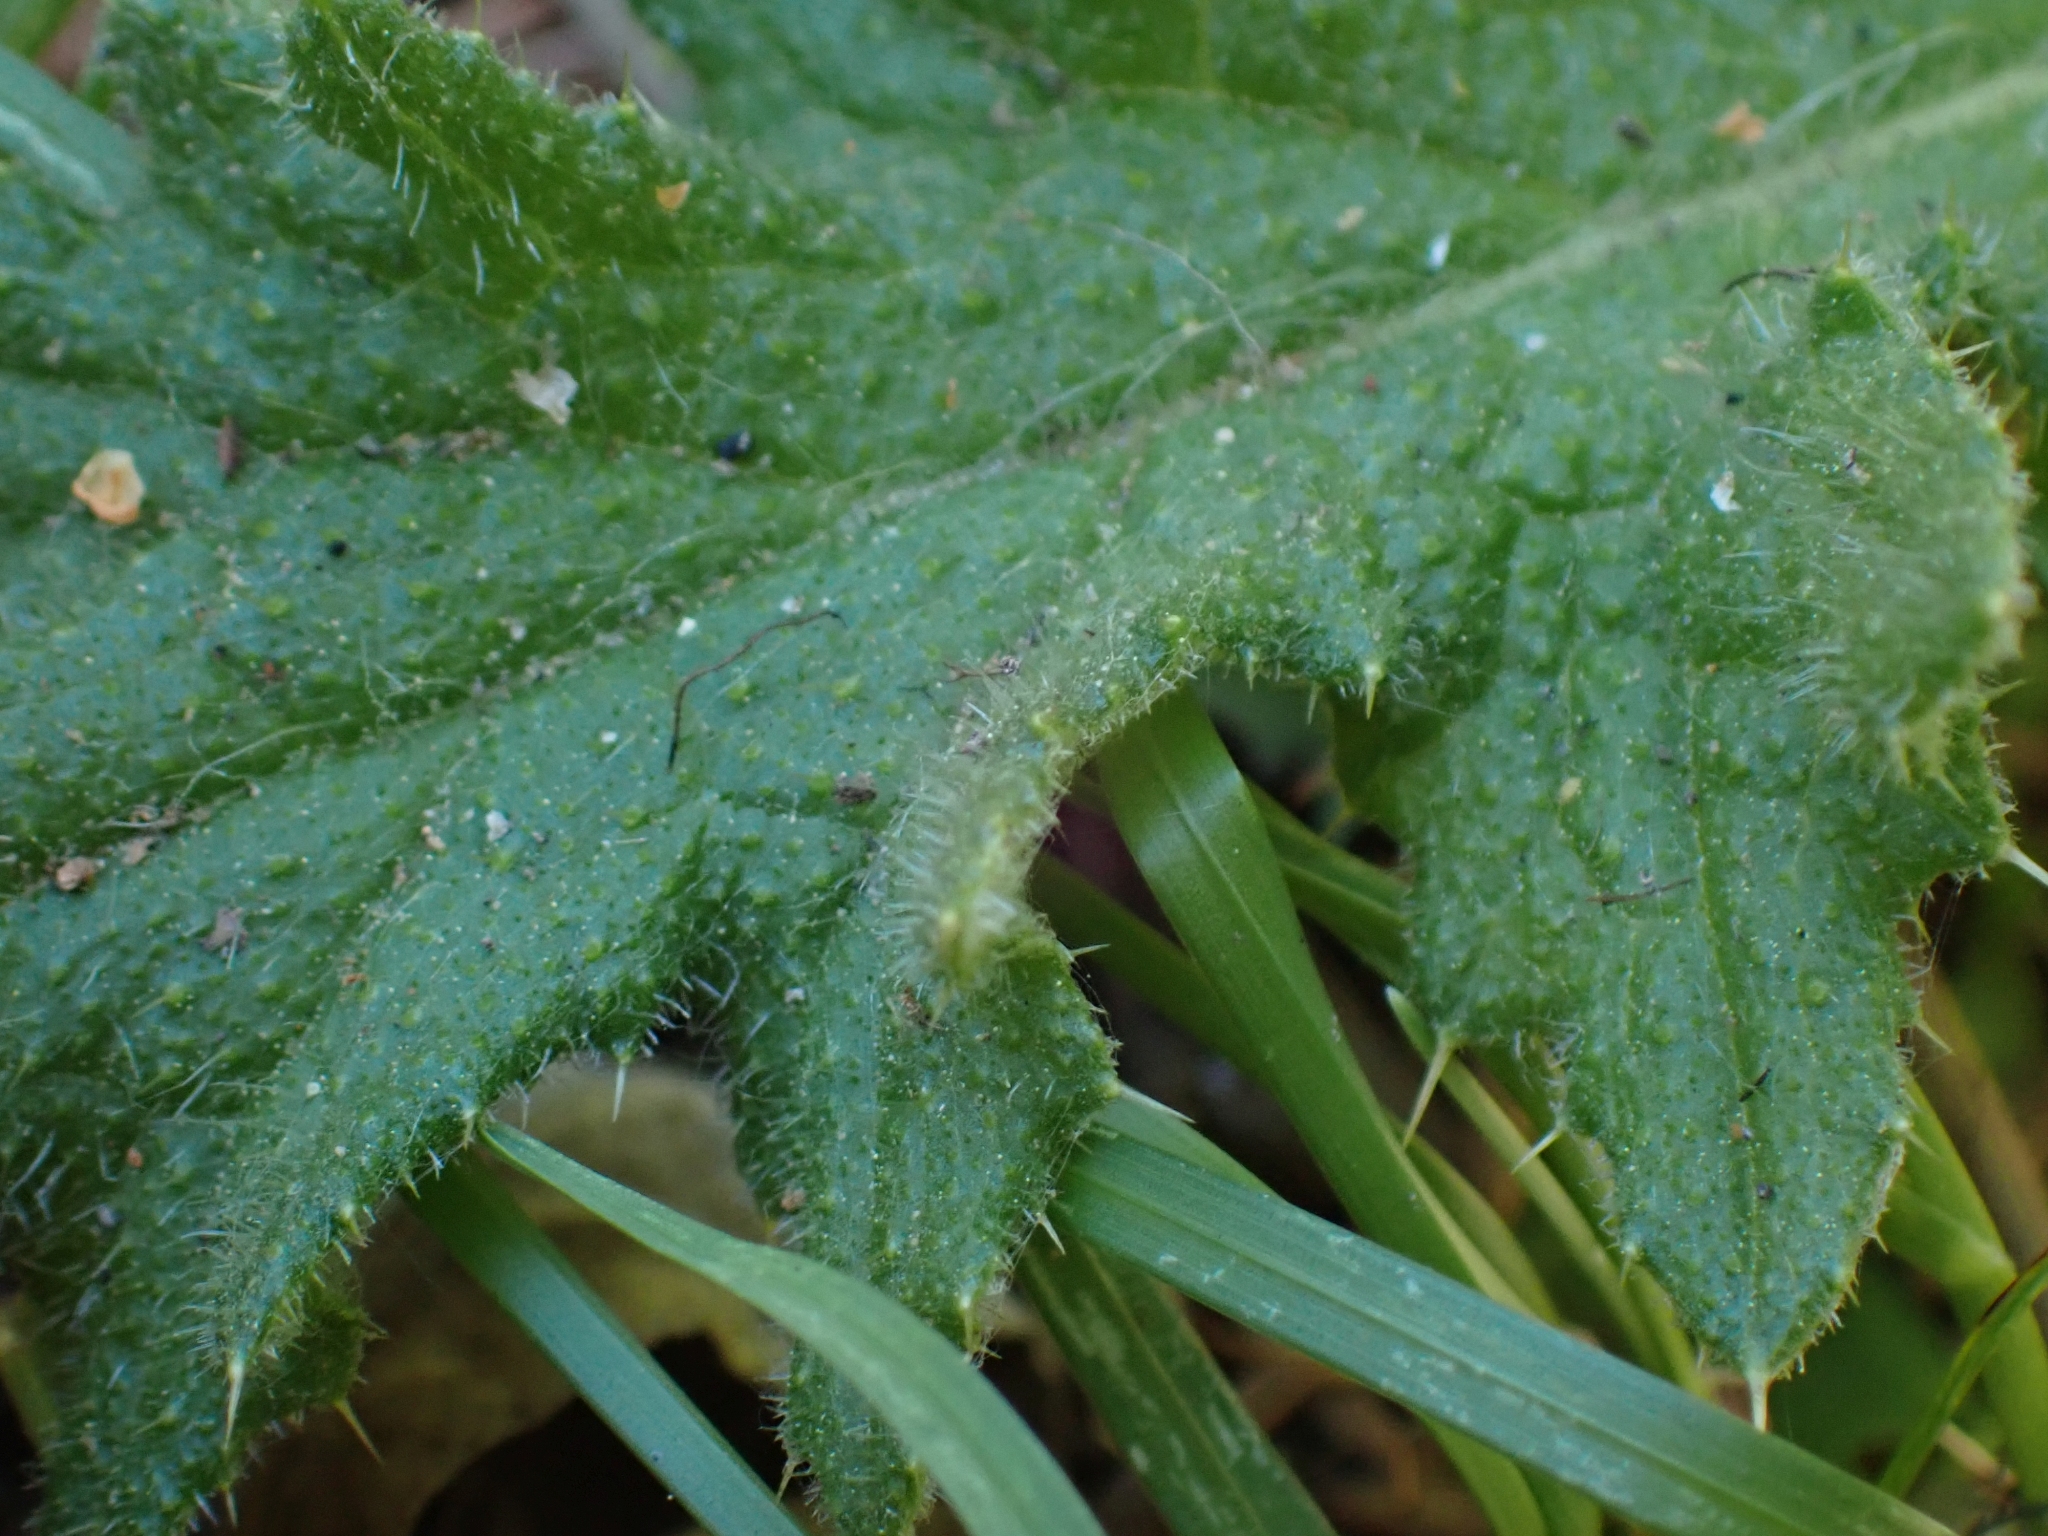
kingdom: Plantae
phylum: Tracheophyta
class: Magnoliopsida
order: Asterales
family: Asteraceae
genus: Cirsium
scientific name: Cirsium vulgare
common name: Bull thistle
